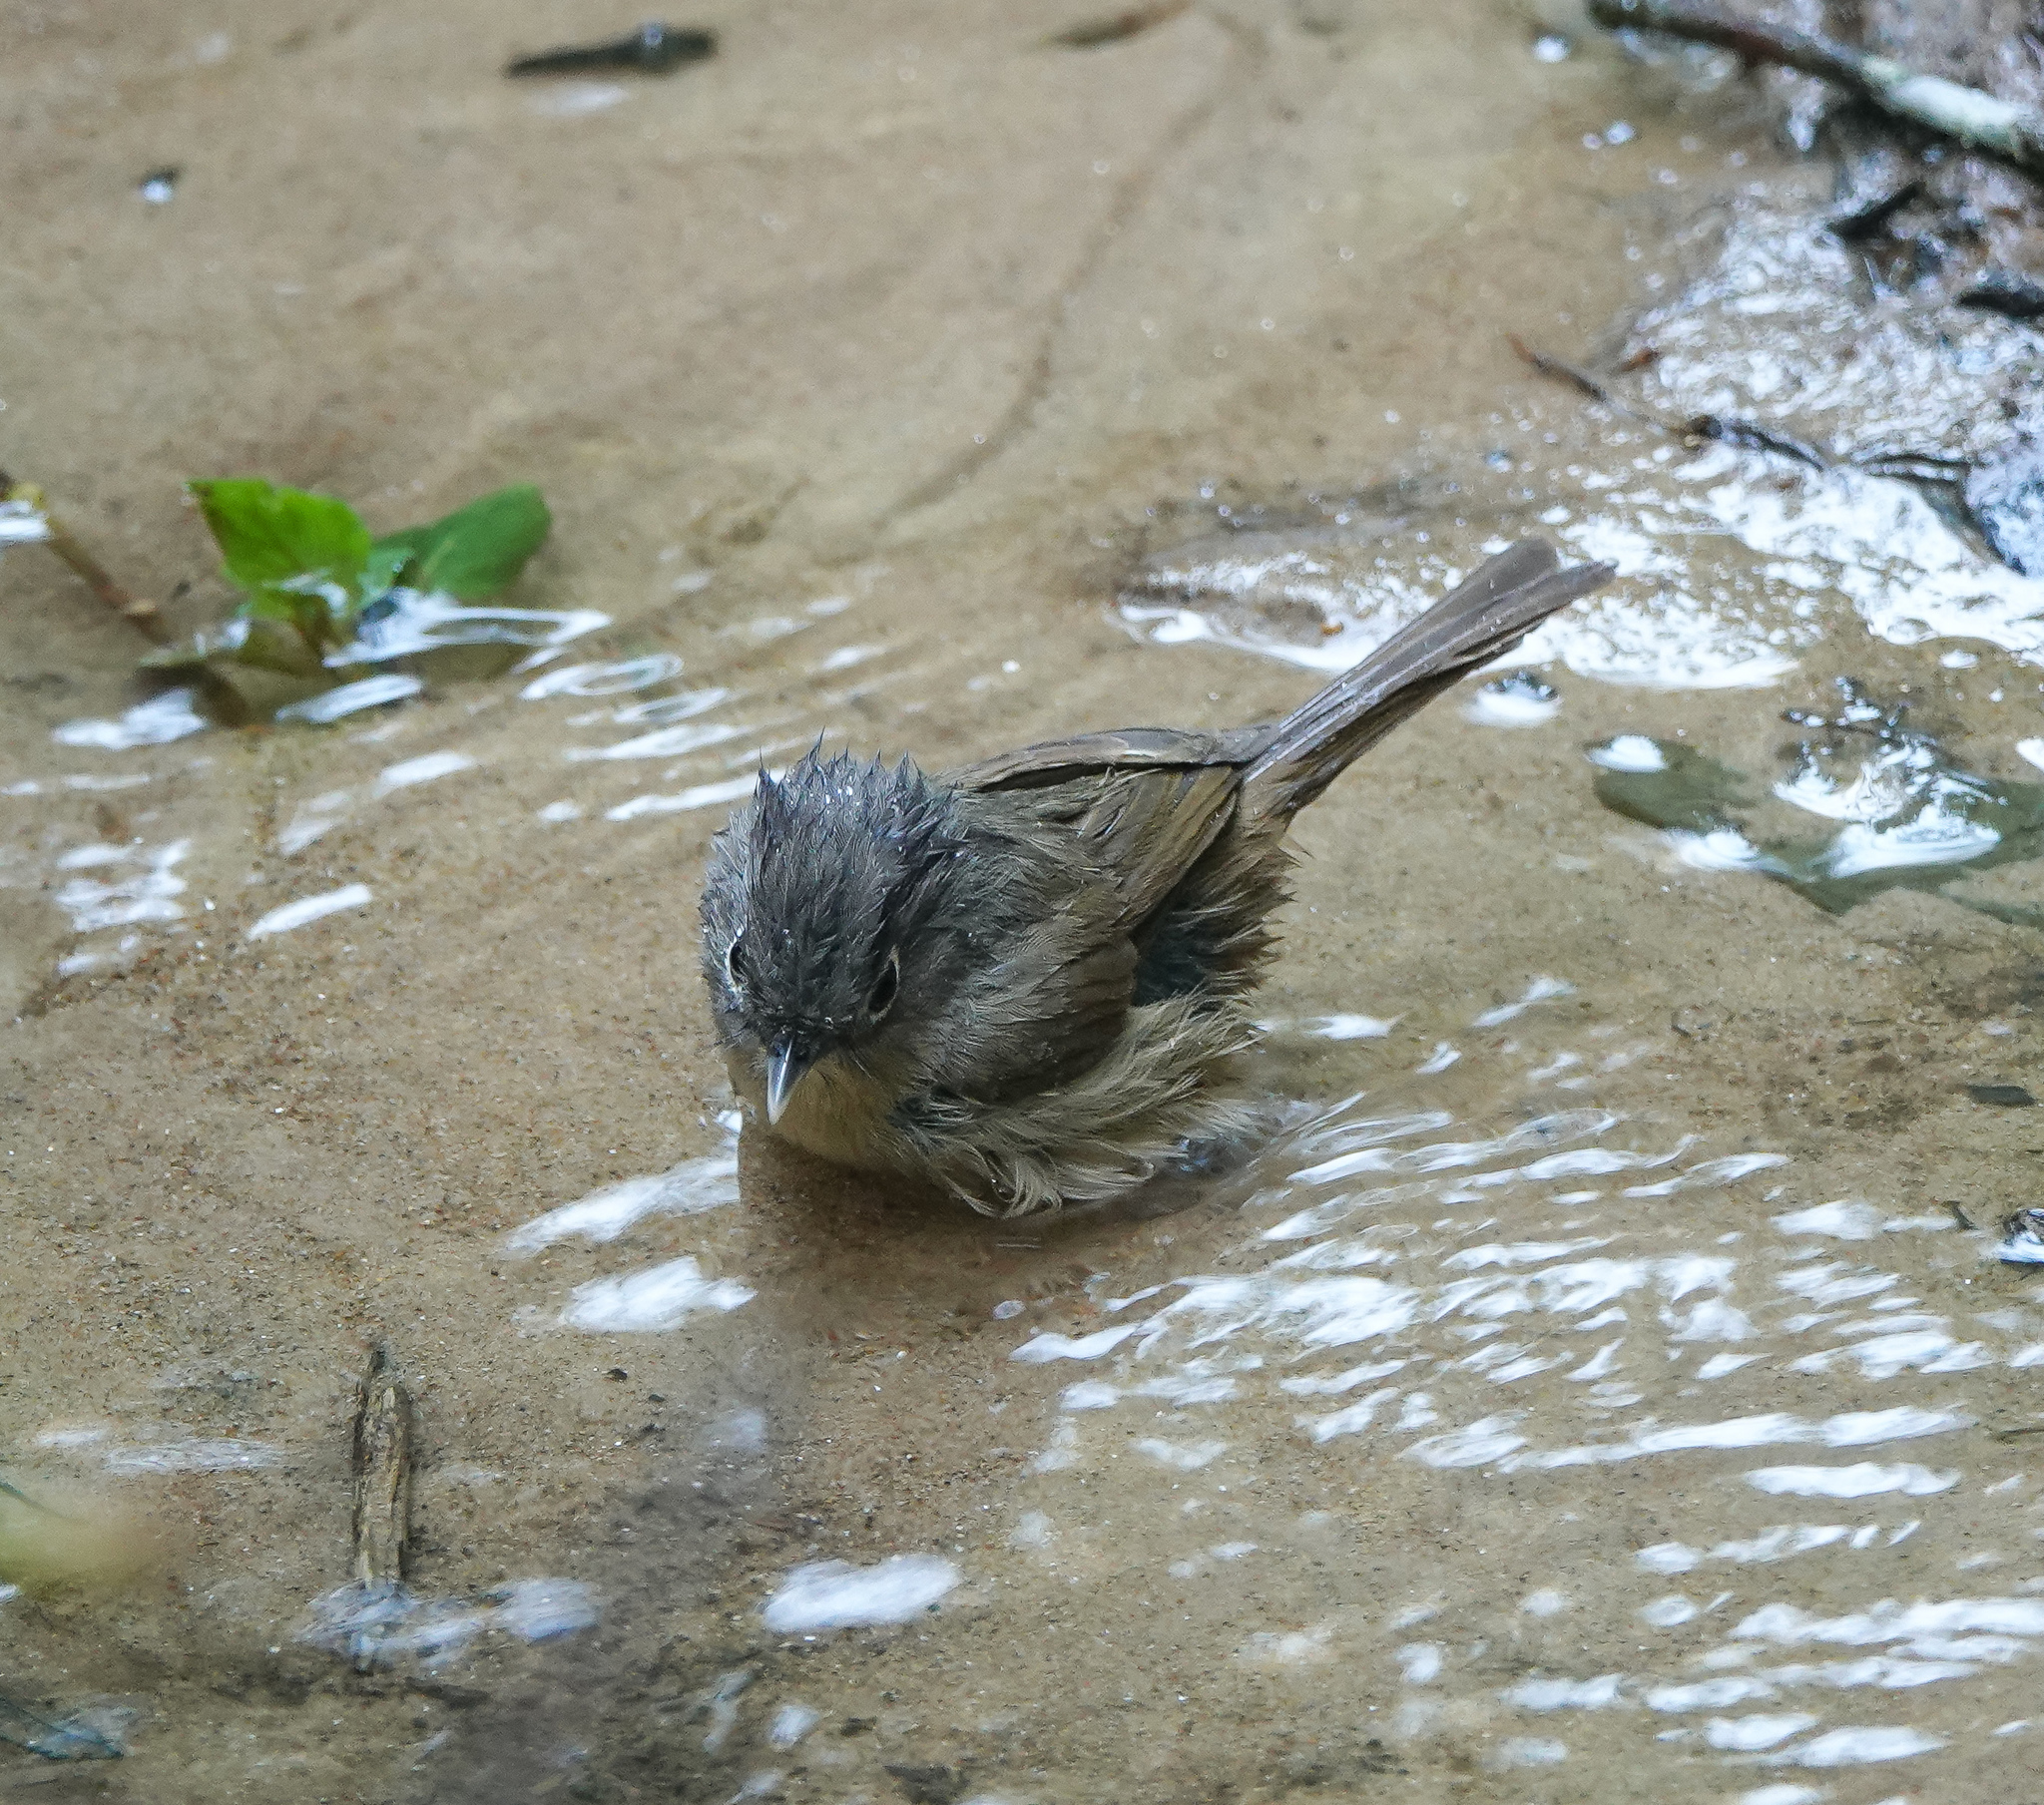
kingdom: Animalia
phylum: Chordata
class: Aves
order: Passeriformes
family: Pellorneidae
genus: Alcippe
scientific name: Alcippe nipalensis
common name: Nepal fulvetta
